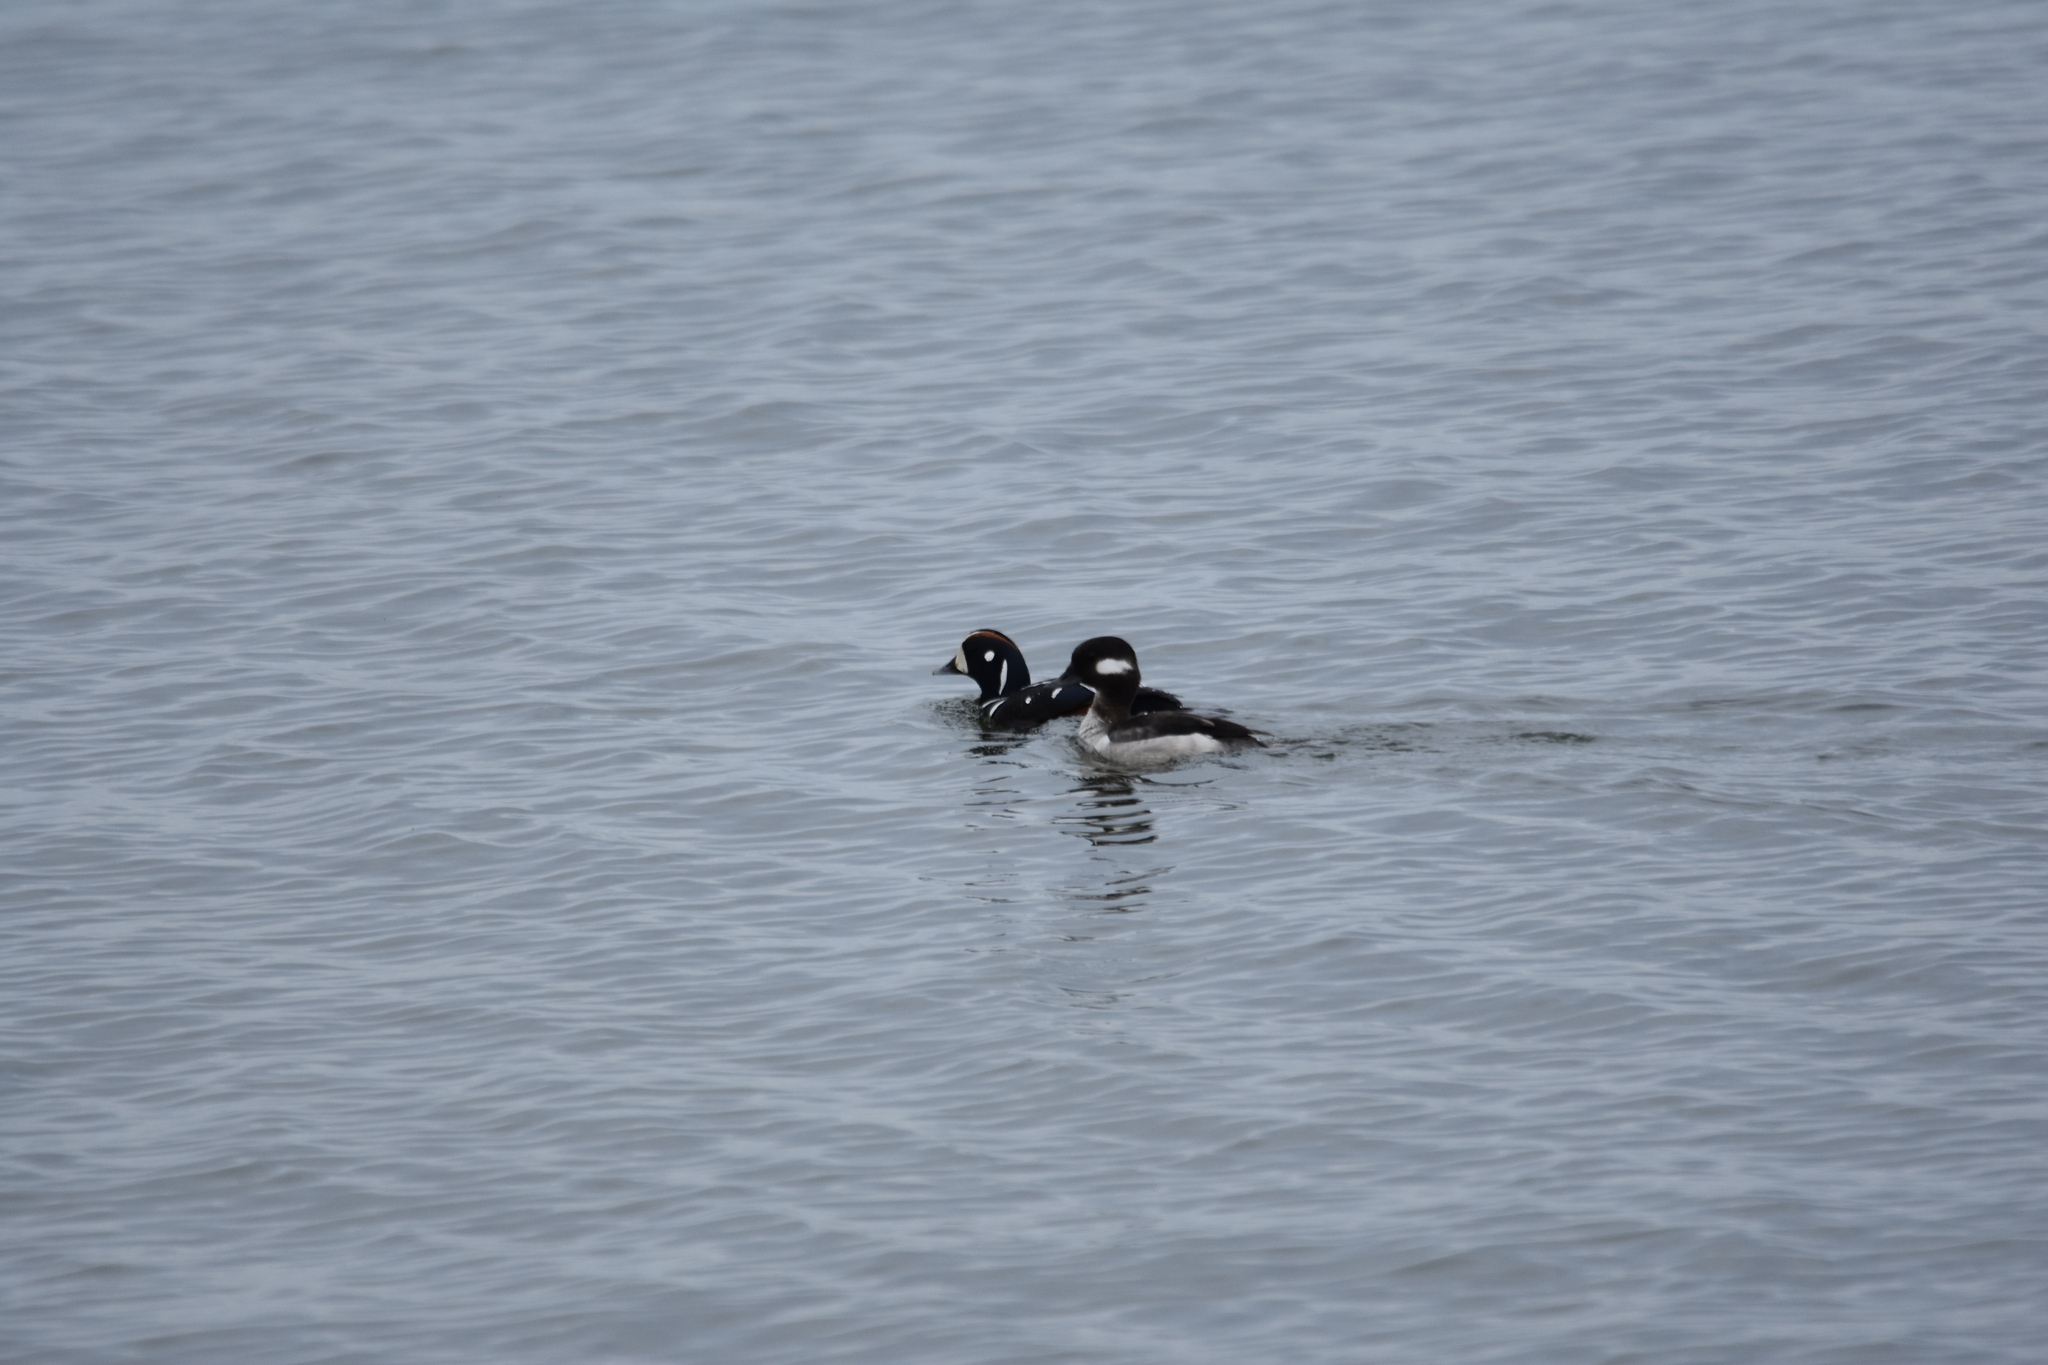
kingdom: Animalia
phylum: Chordata
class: Aves
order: Anseriformes
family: Anatidae
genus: Bucephala
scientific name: Bucephala albeola
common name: Bufflehead
